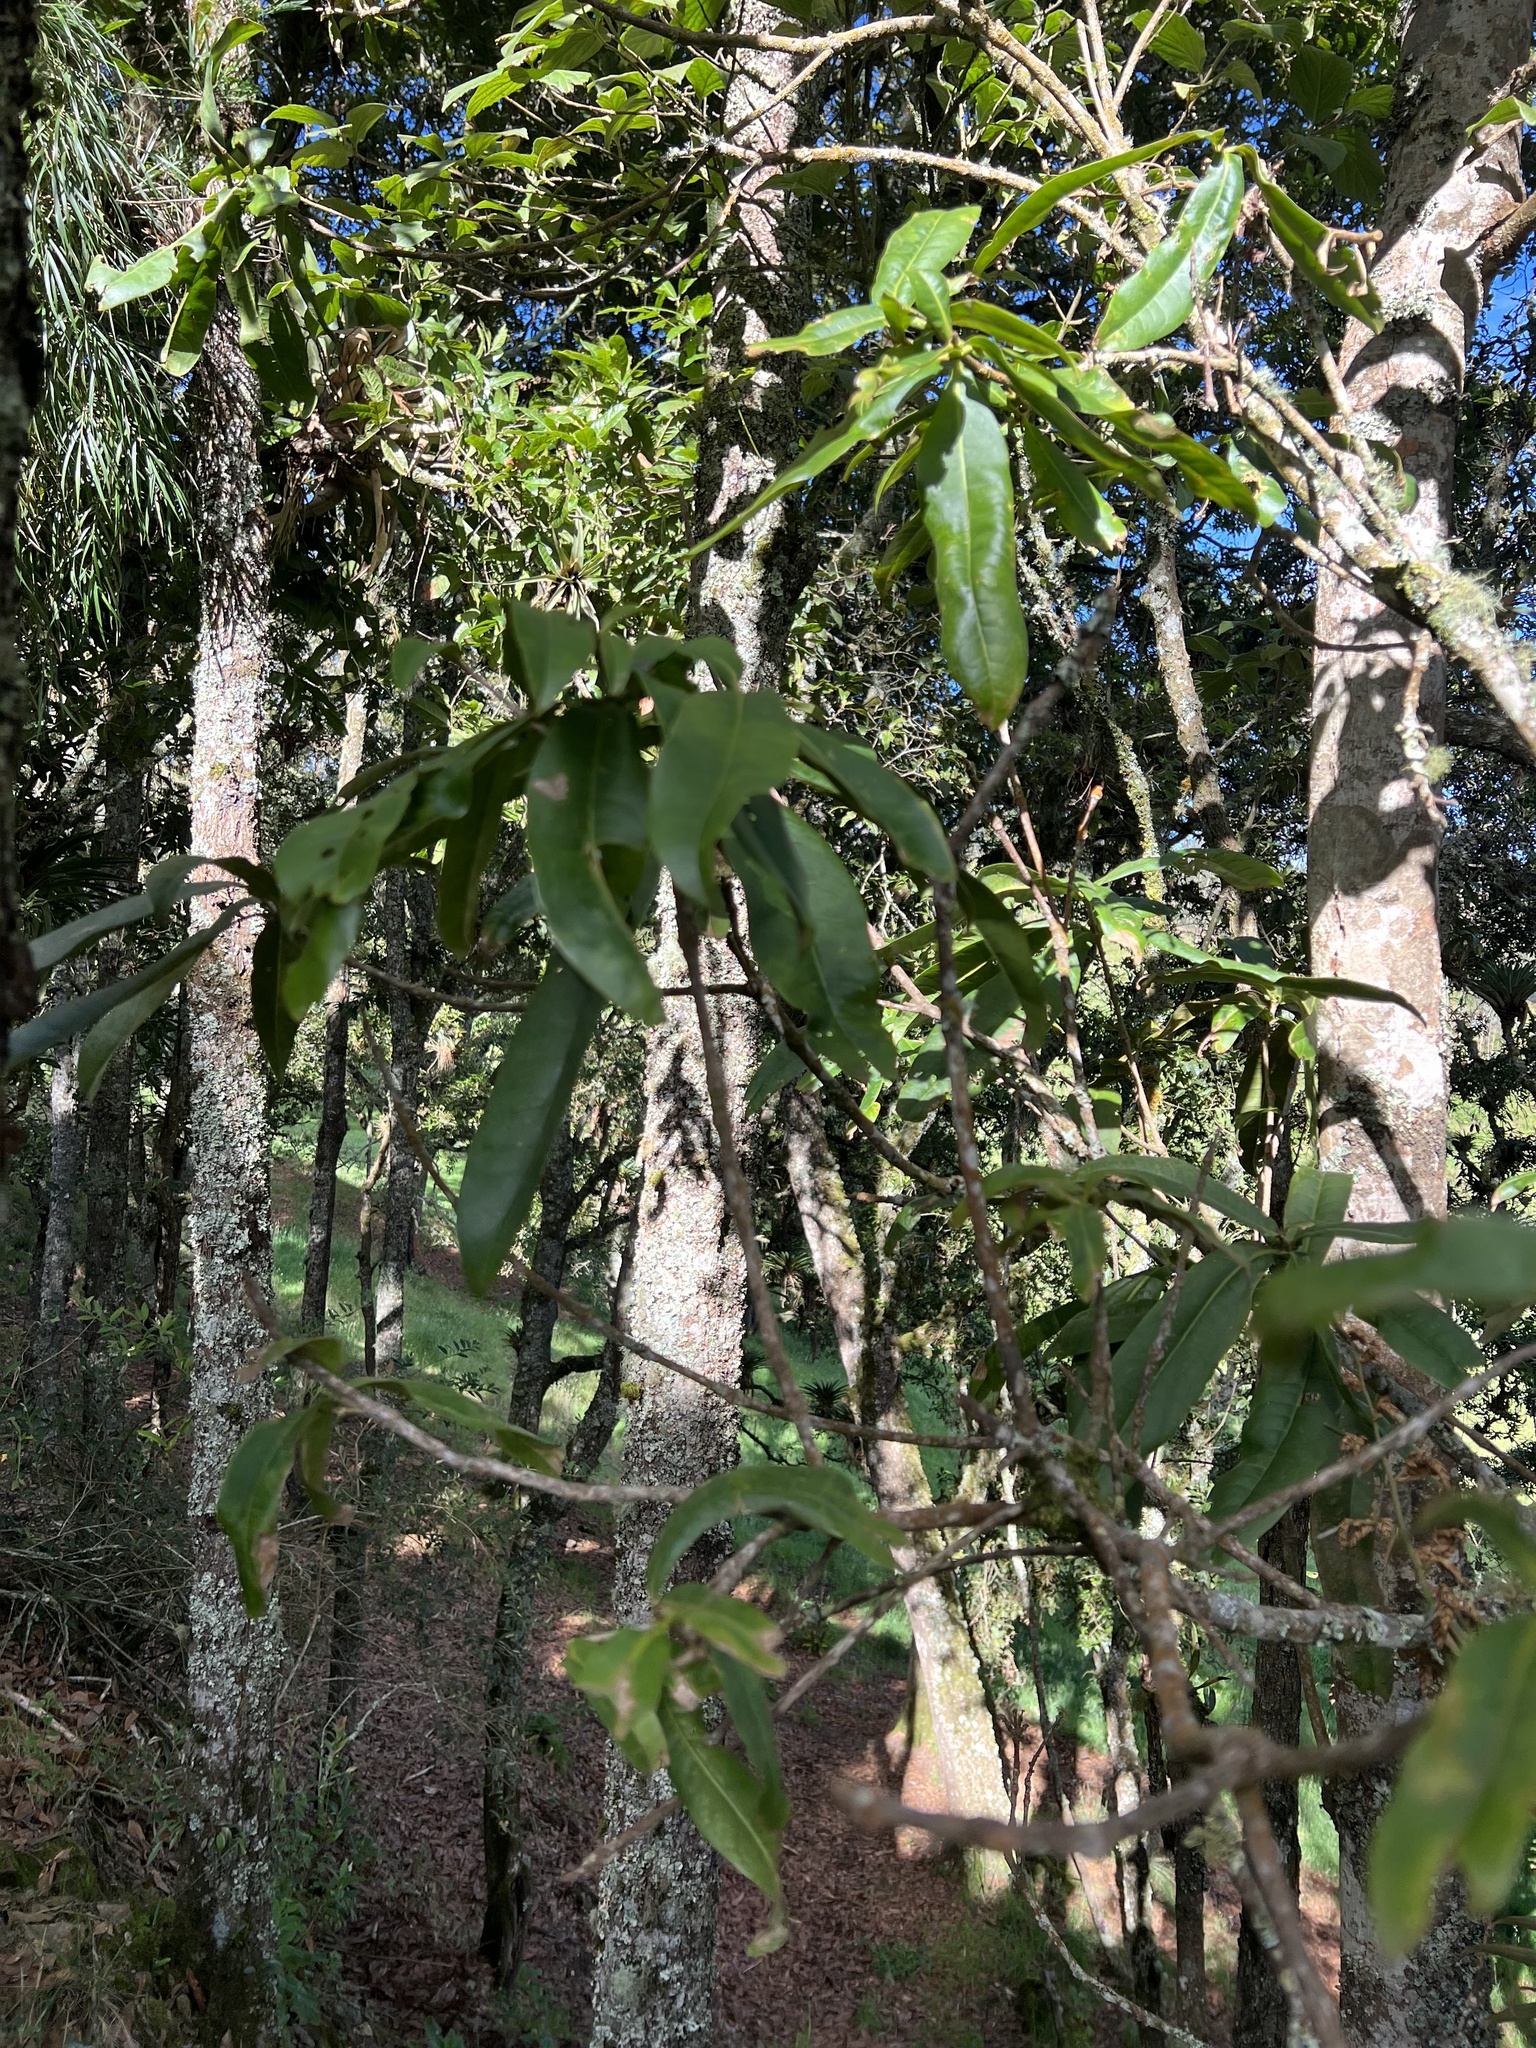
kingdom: Plantae
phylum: Tracheophyta
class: Magnoliopsida
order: Proteales
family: Proteaceae
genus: Panopsis
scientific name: Panopsis suaveolens
